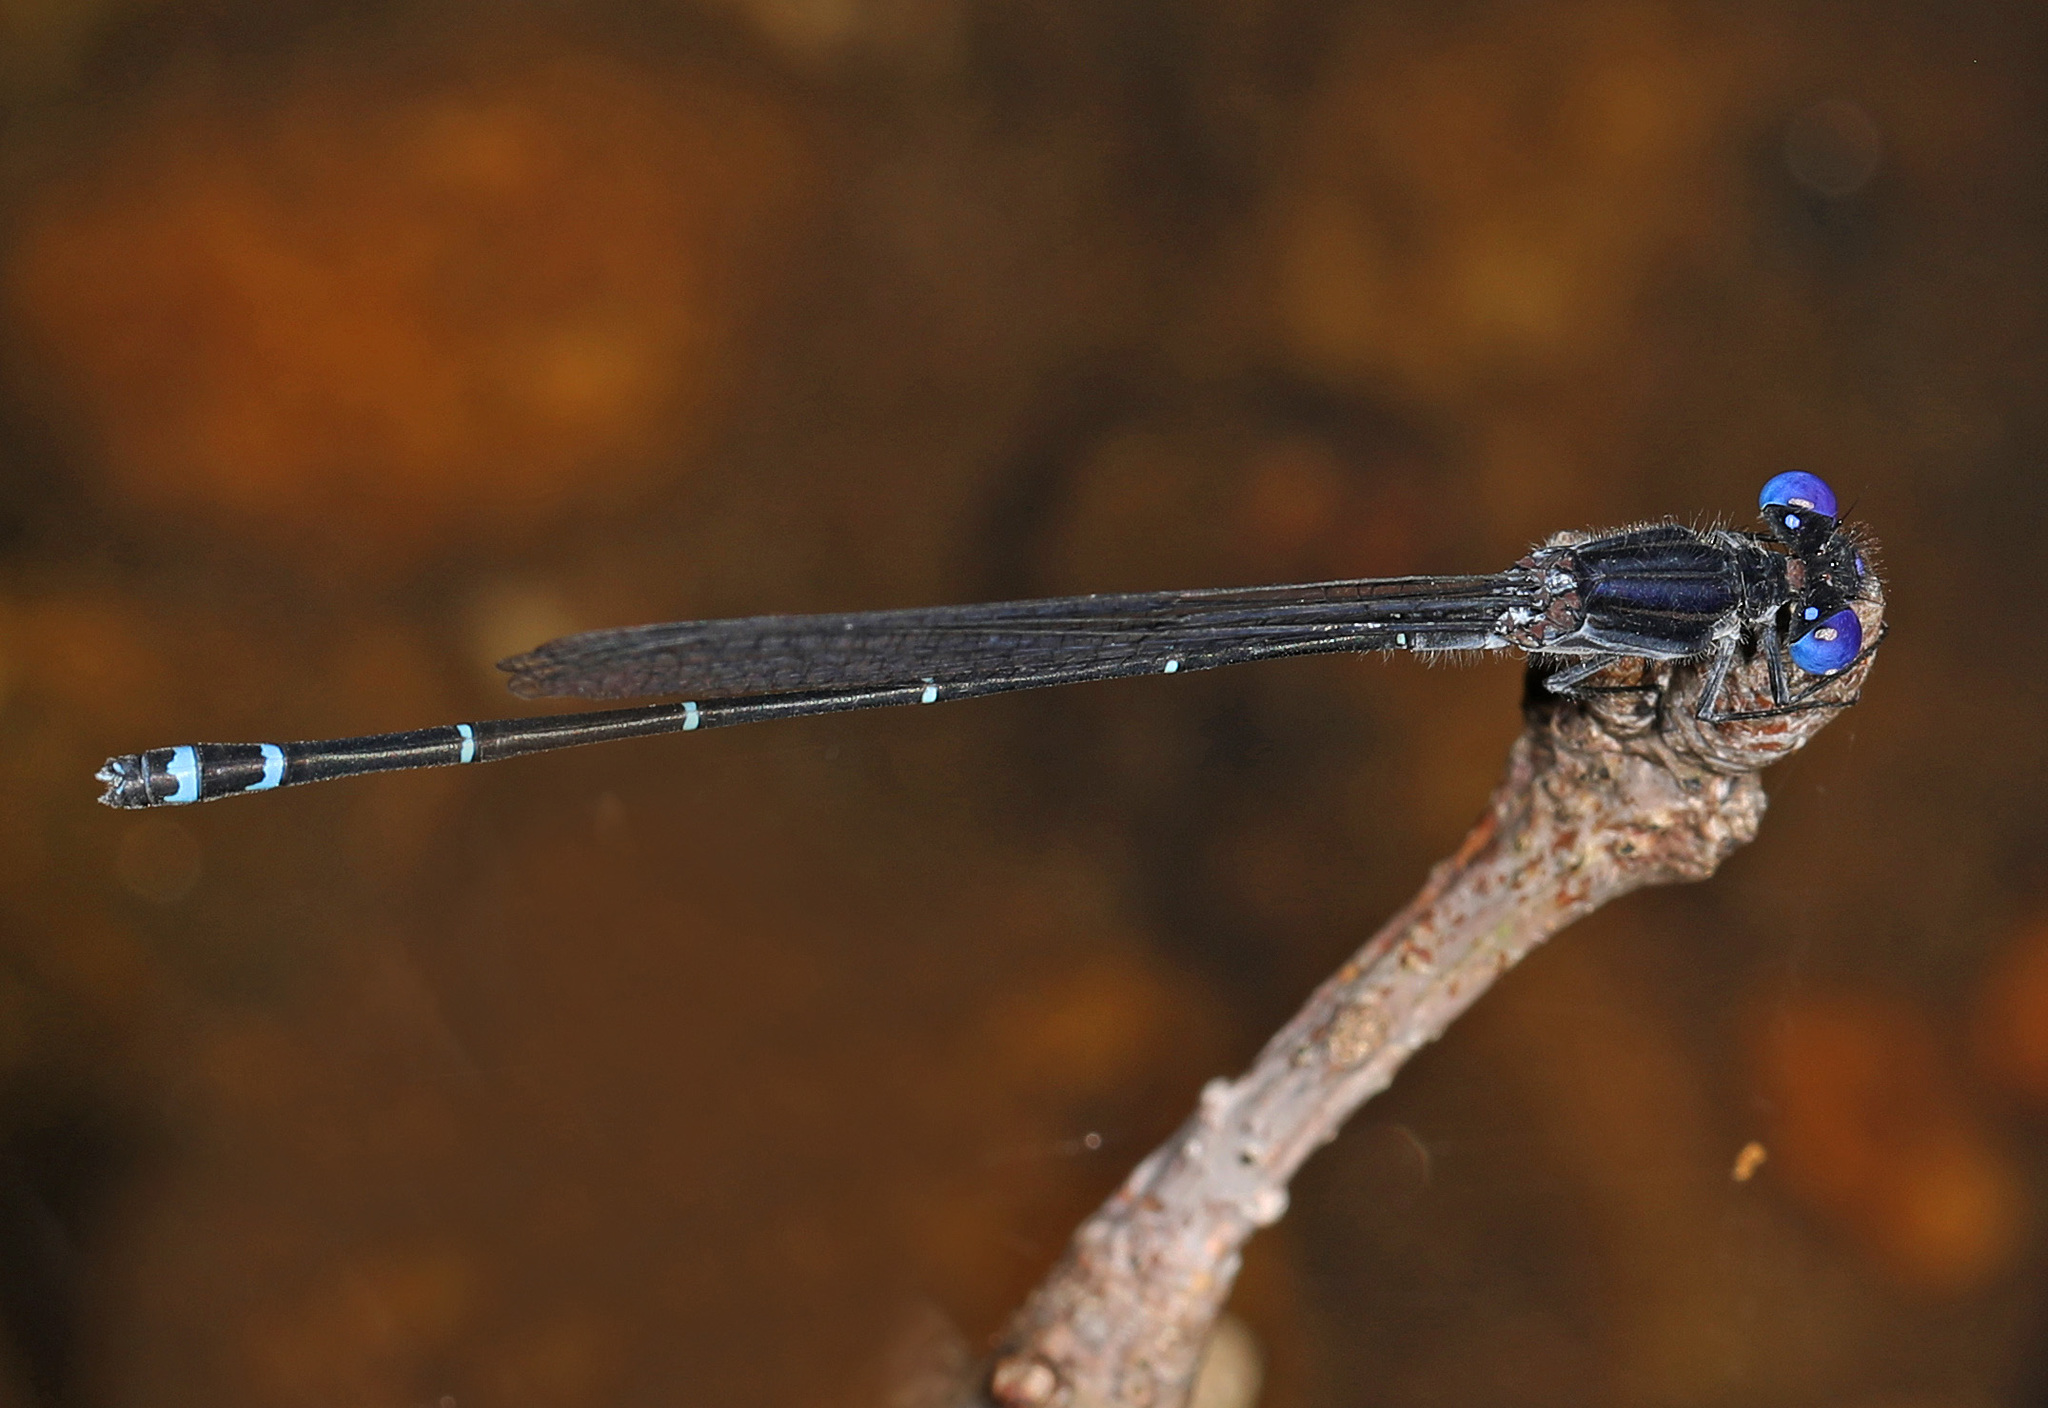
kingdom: Animalia
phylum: Arthropoda
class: Insecta
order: Odonata
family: Coenagrionidae
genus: Argia
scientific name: Argia translata
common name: Dusky dancer
